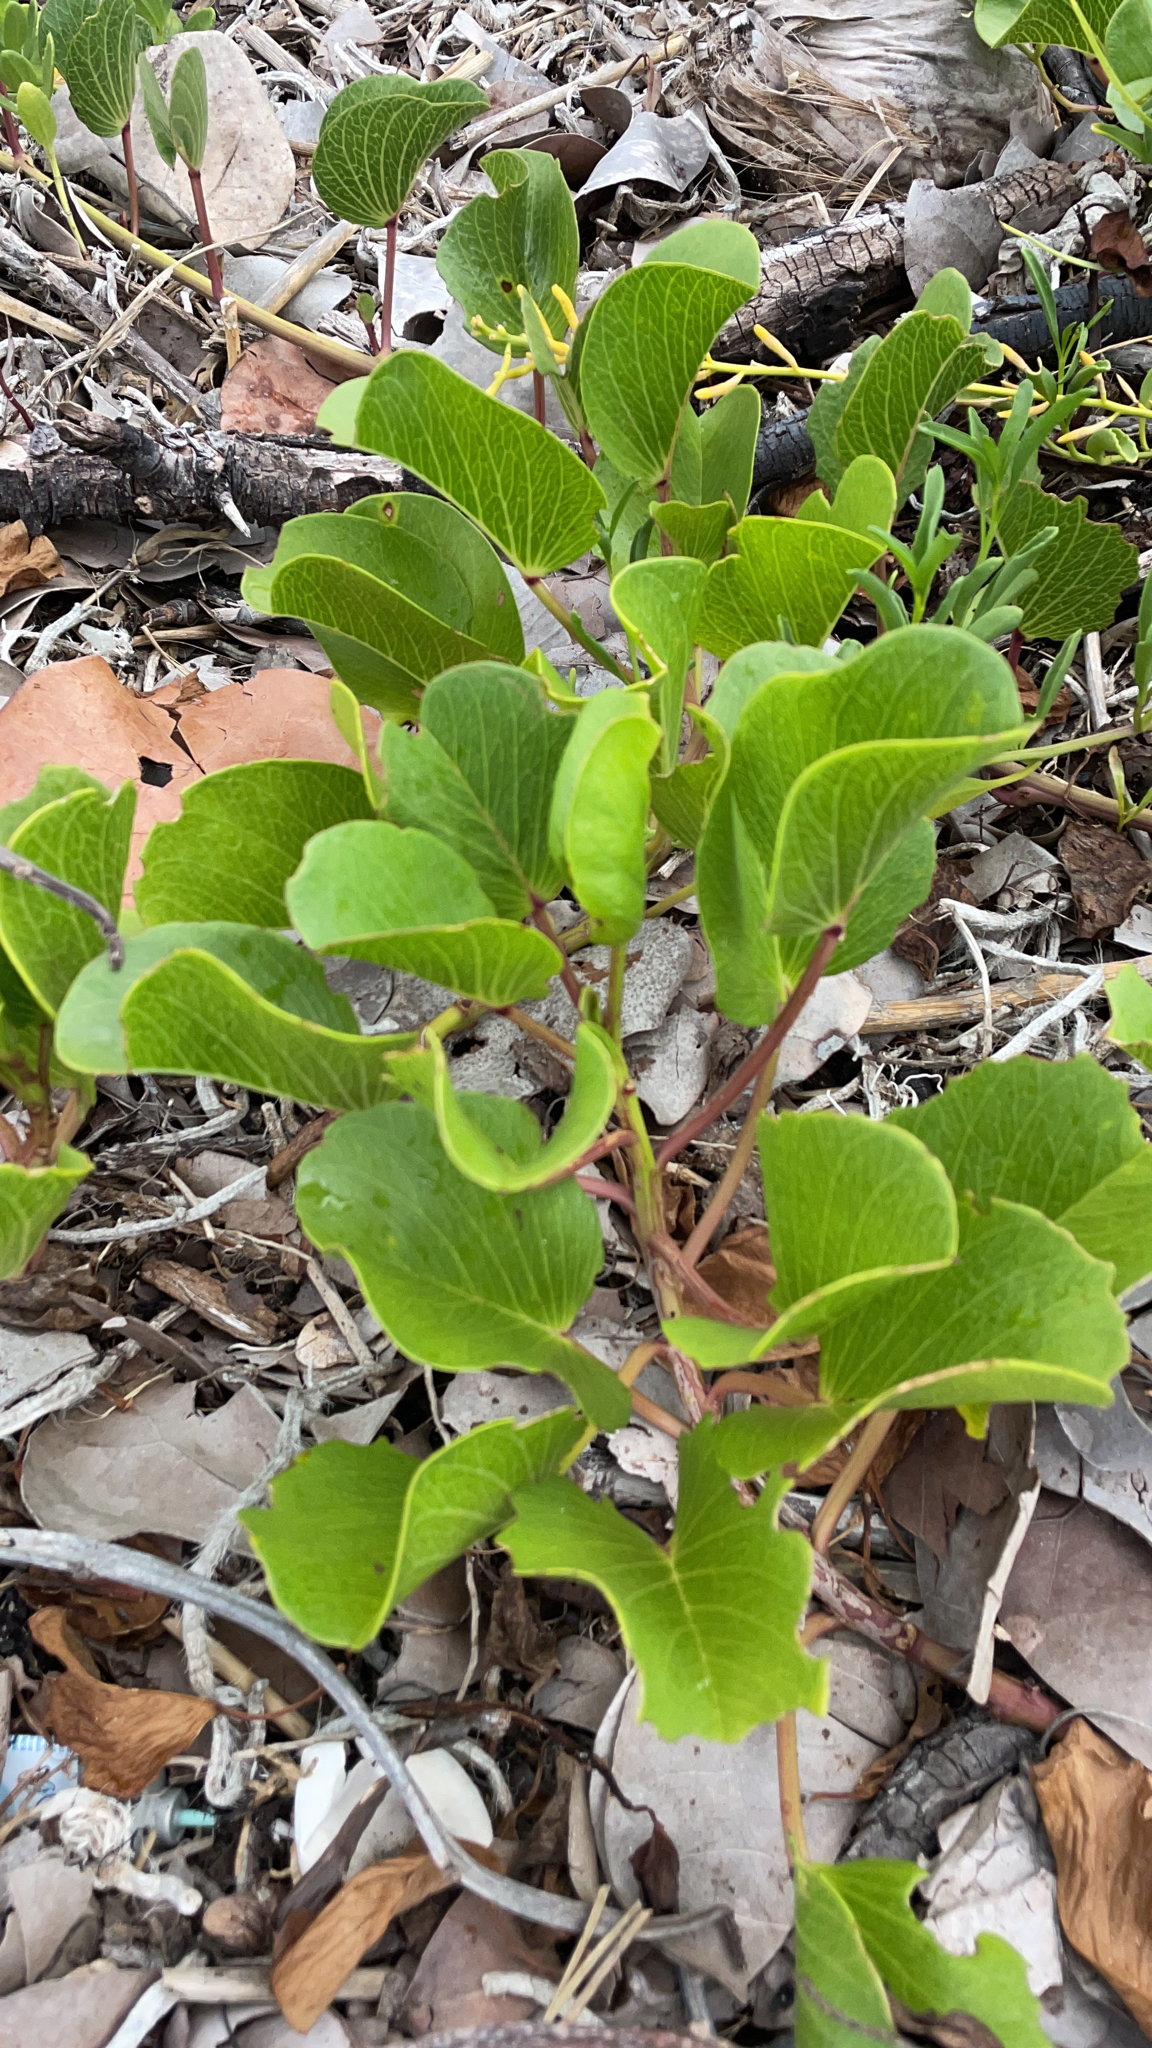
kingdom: Plantae
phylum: Tracheophyta
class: Magnoliopsida
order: Solanales
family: Convolvulaceae
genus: Ipomoea
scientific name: Ipomoea pes-caprae
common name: Beach morning glory
